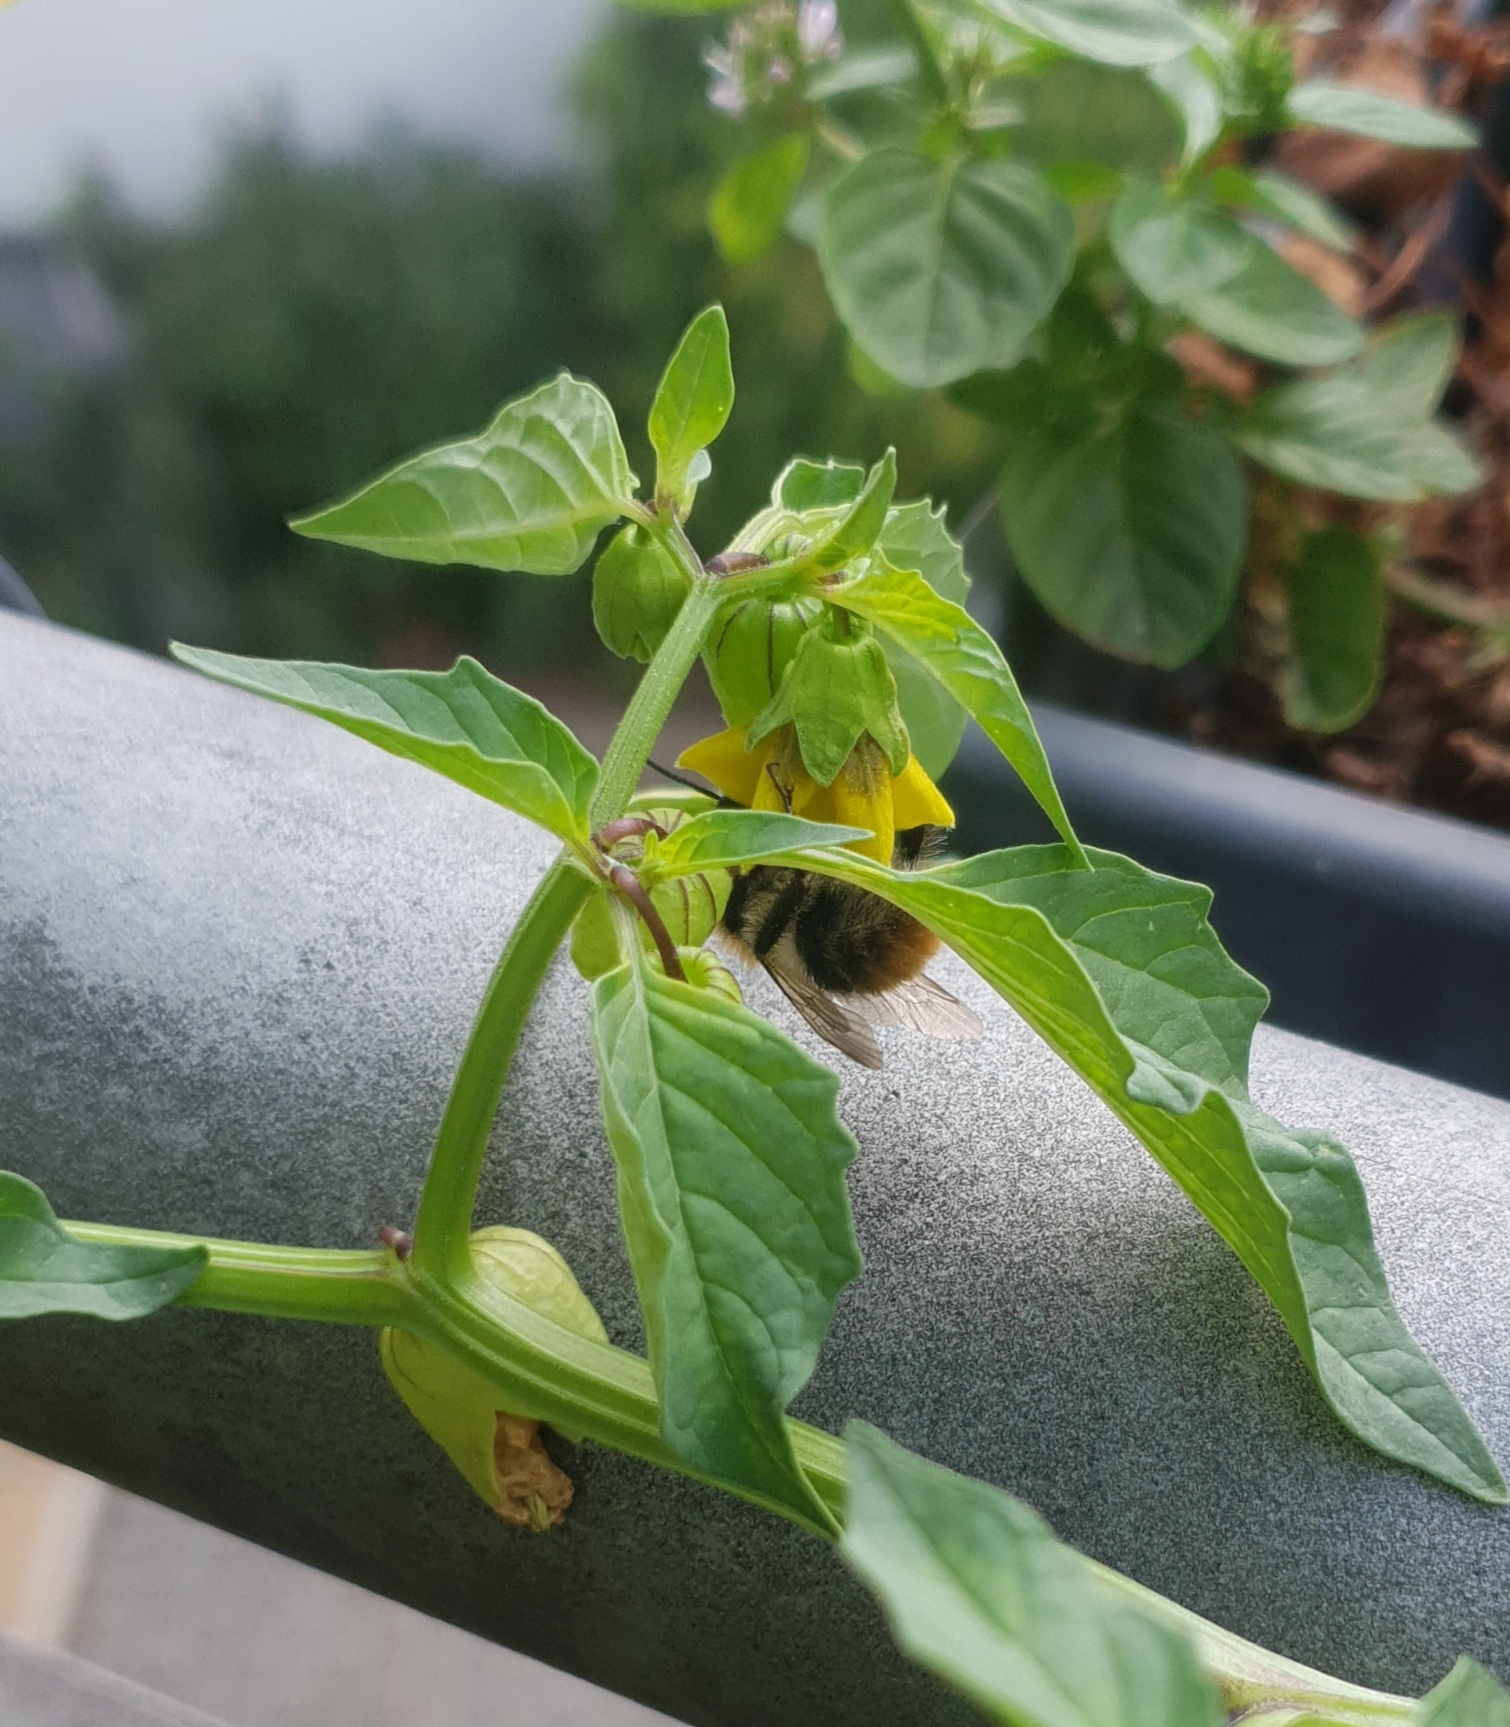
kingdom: Animalia
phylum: Arthropoda
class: Insecta
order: Hymenoptera
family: Apidae
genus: Bombus
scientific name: Bombus pascuorum
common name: Common carder bee
